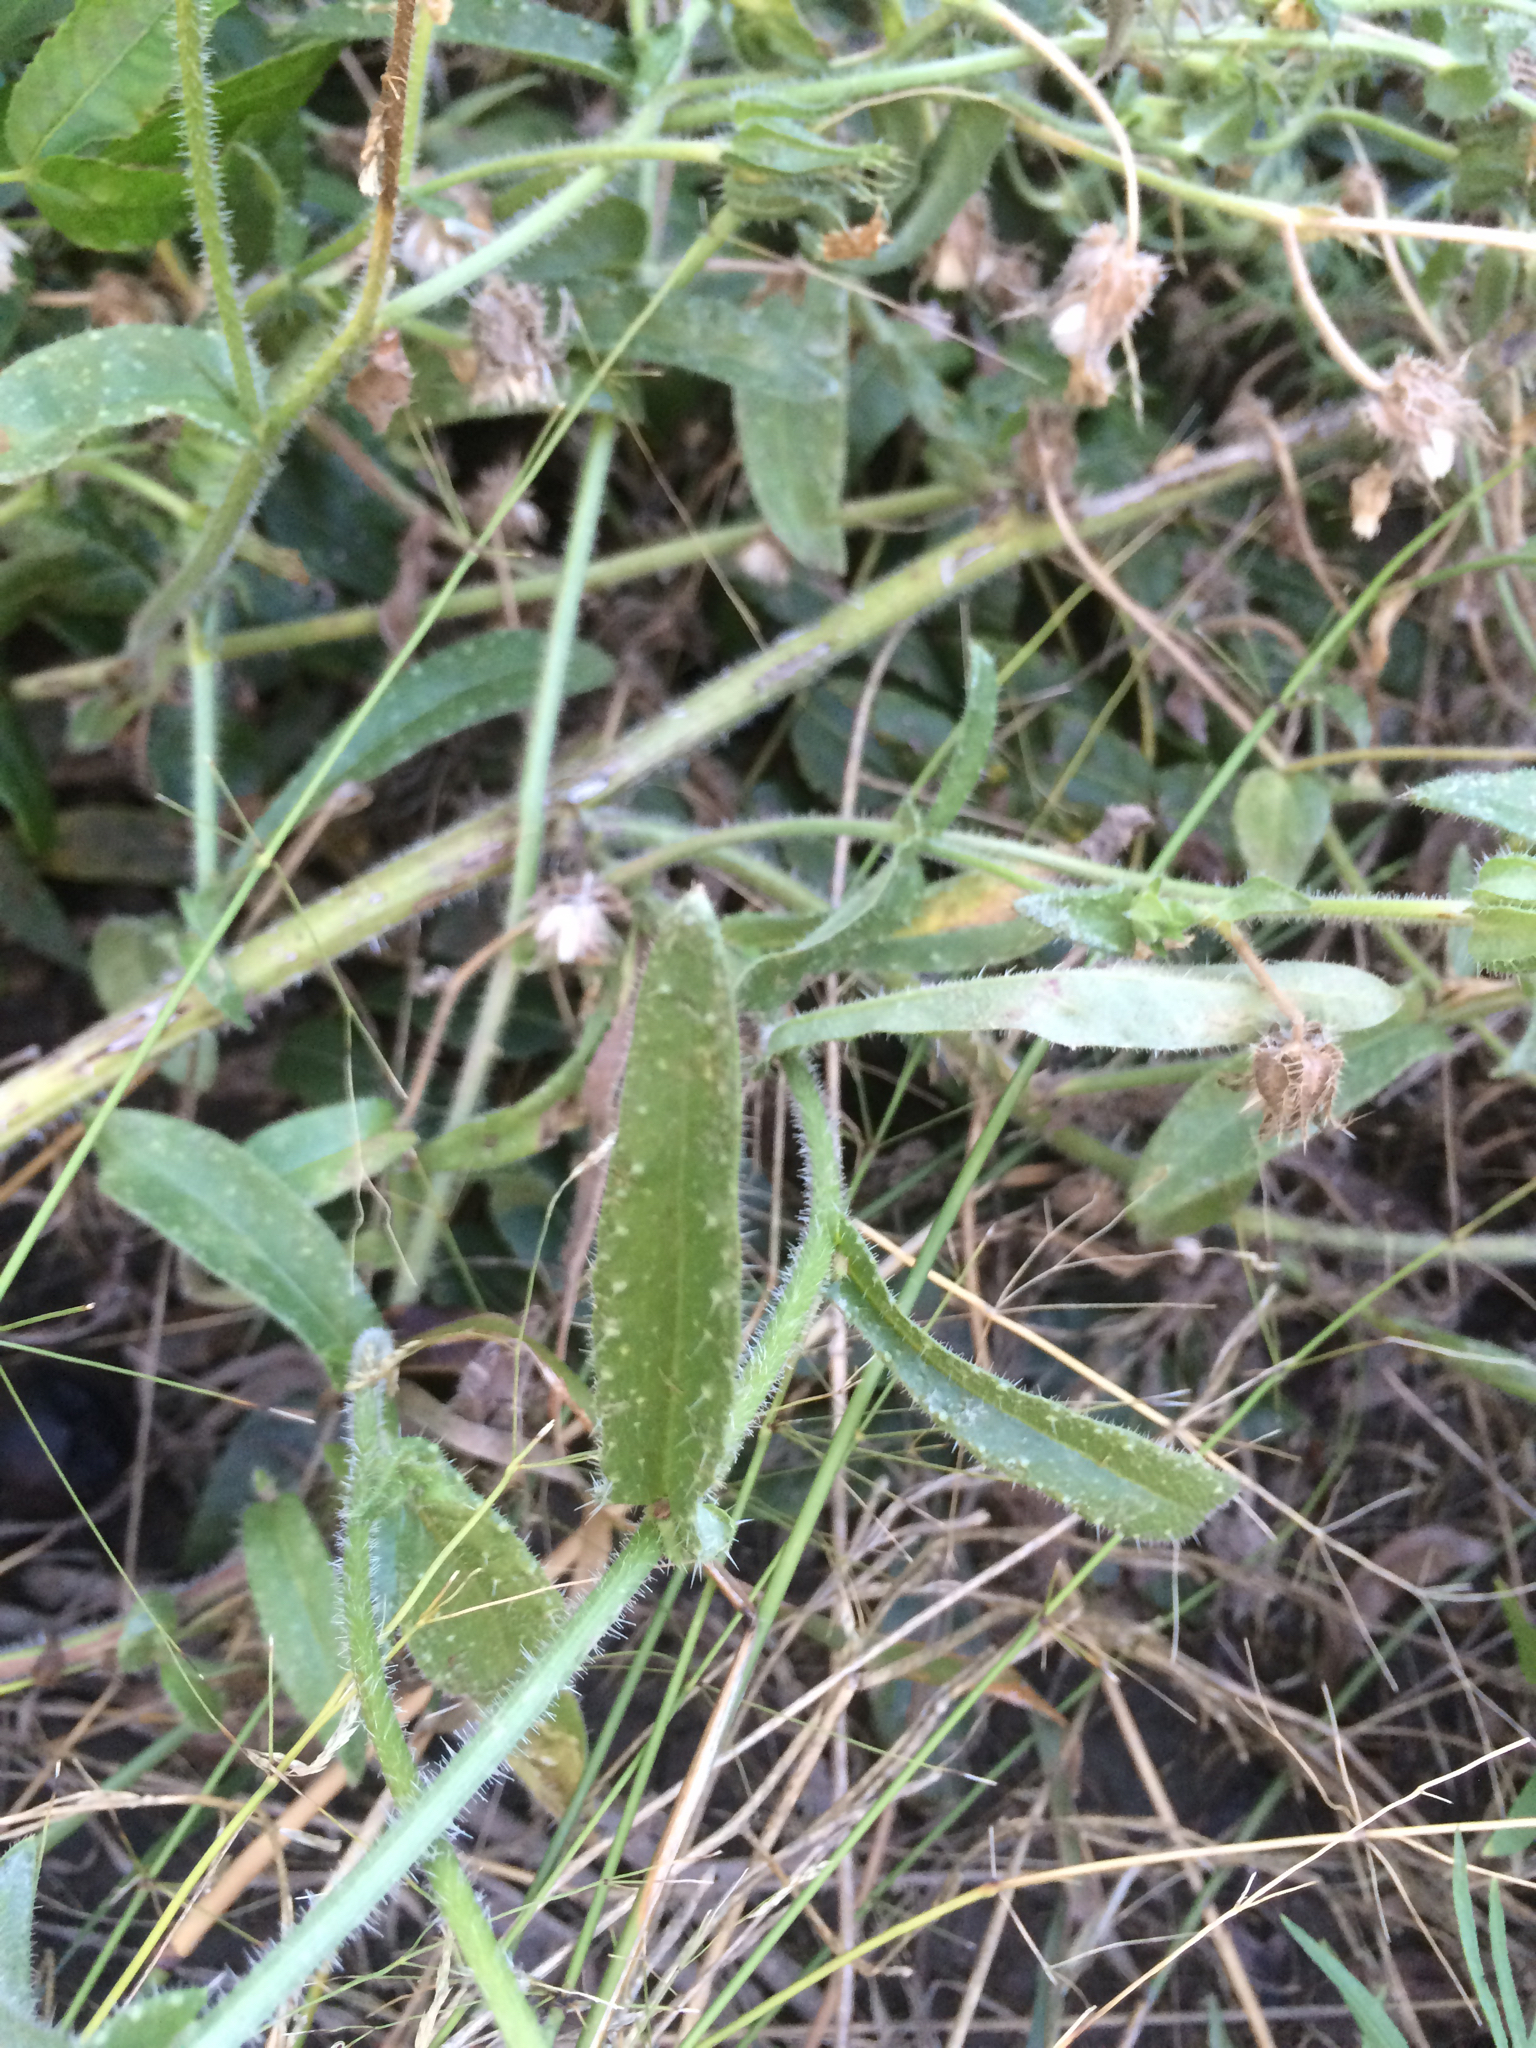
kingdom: Plantae
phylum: Tracheophyta
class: Magnoliopsida
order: Asterales
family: Asteraceae
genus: Helminthotheca
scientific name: Helminthotheca echioides
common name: Ox-tongue
